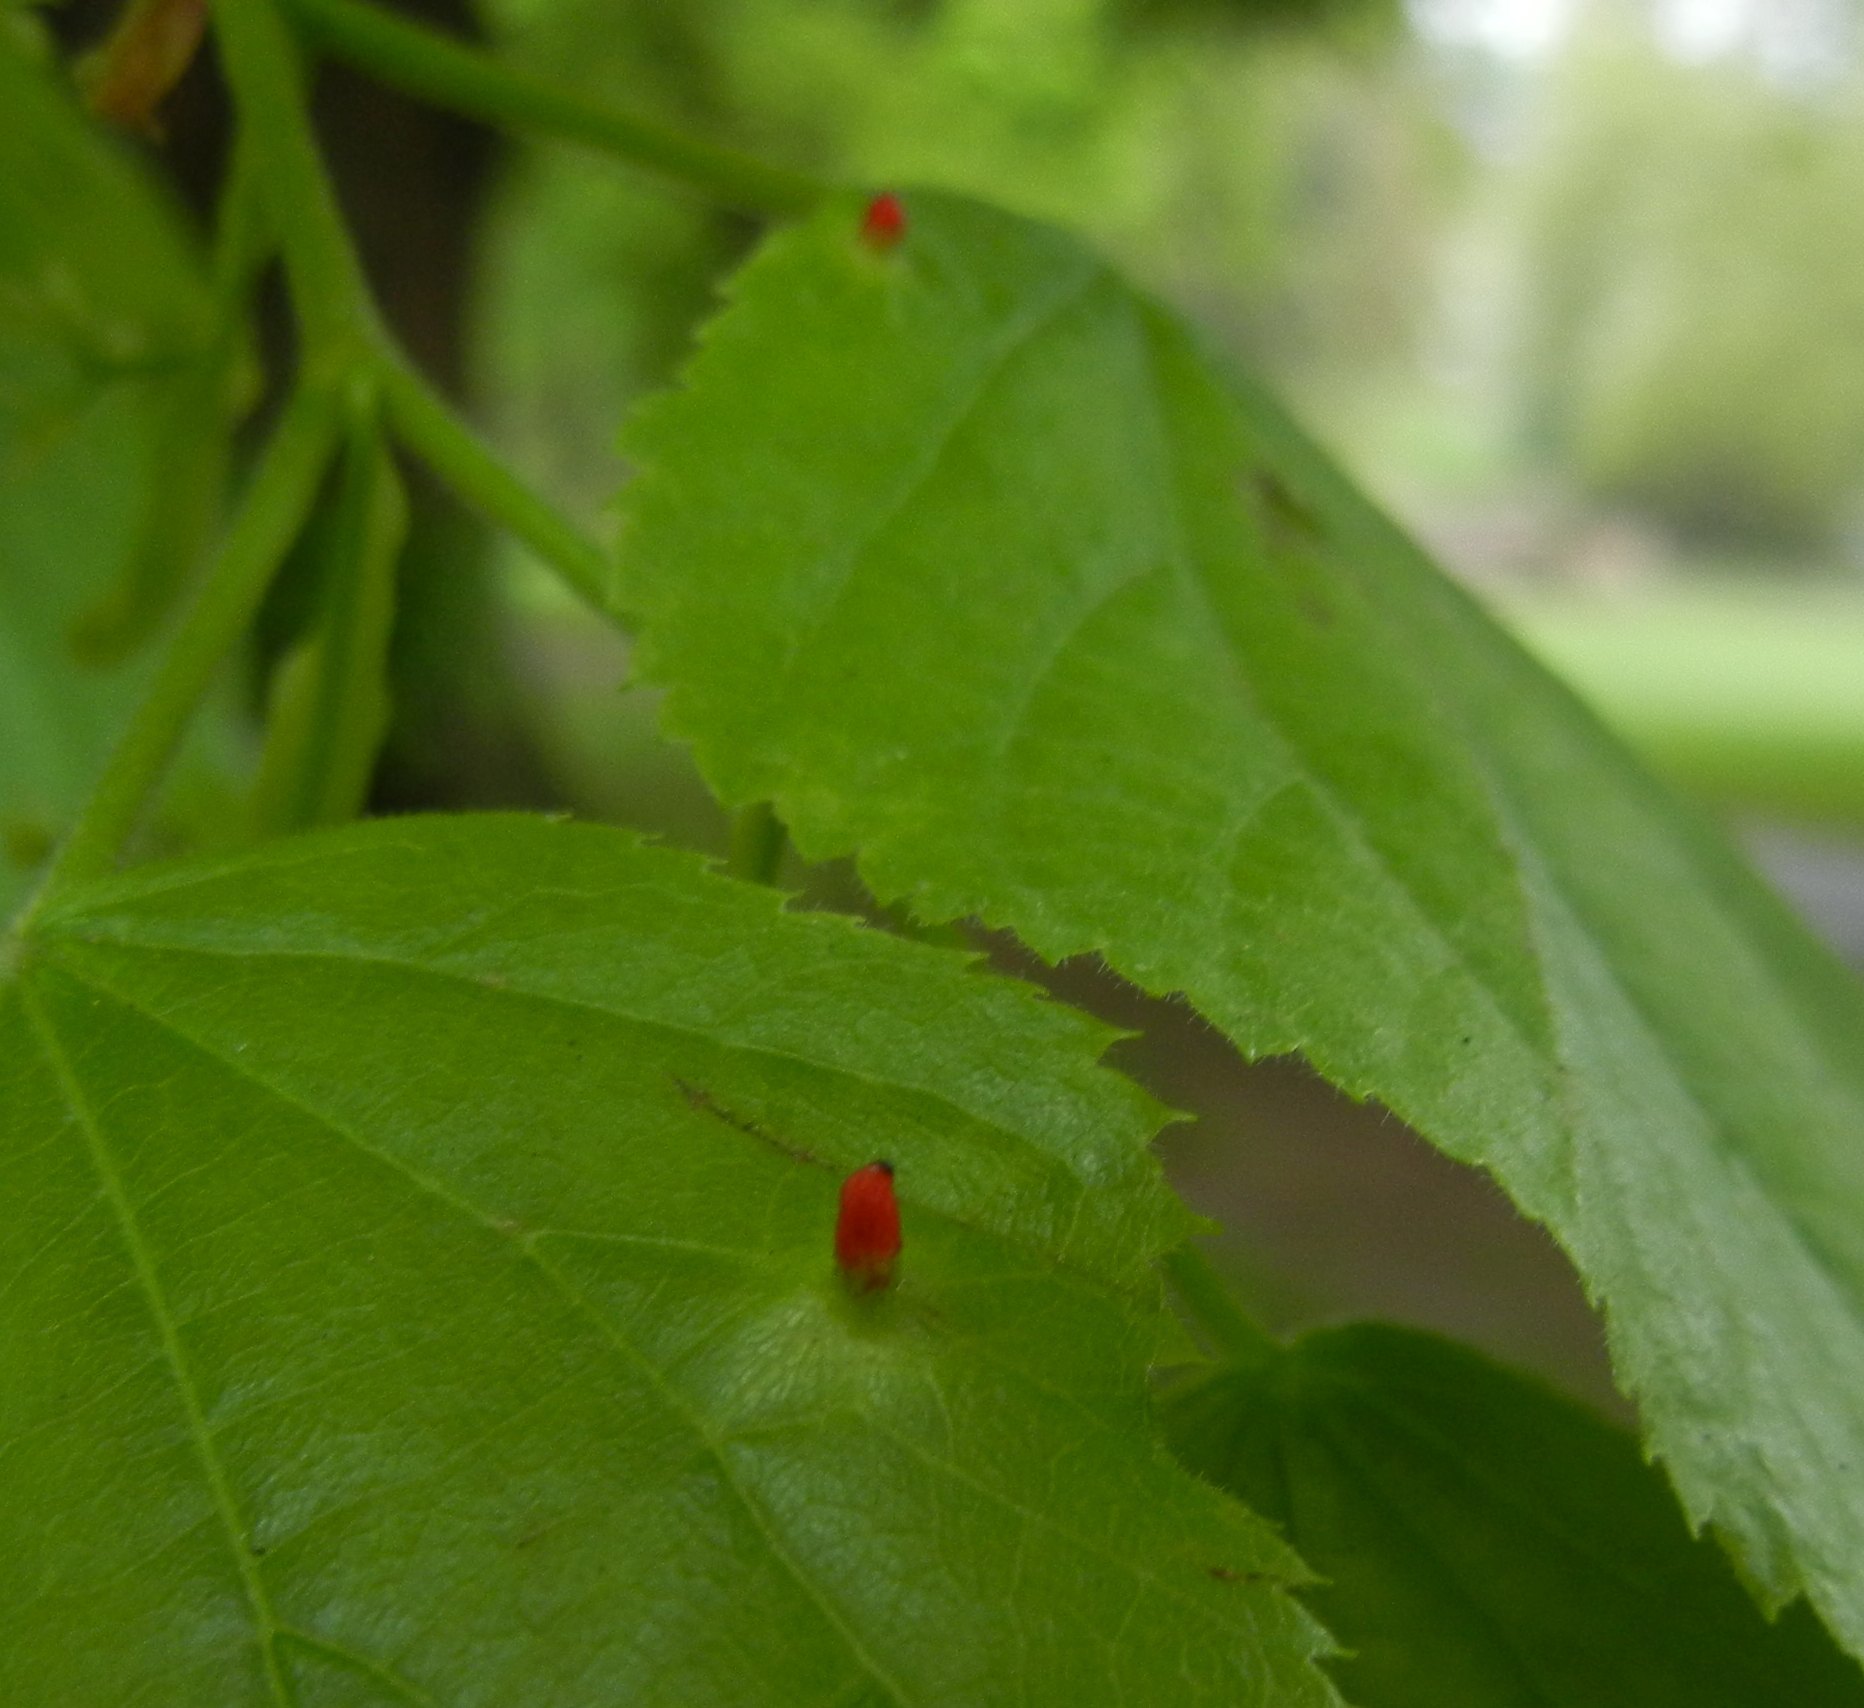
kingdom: Animalia
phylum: Arthropoda
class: Arachnida
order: Trombidiformes
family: Eriophyidae
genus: Eriophyes
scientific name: Eriophyes tiliae
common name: Red nail gall mite
